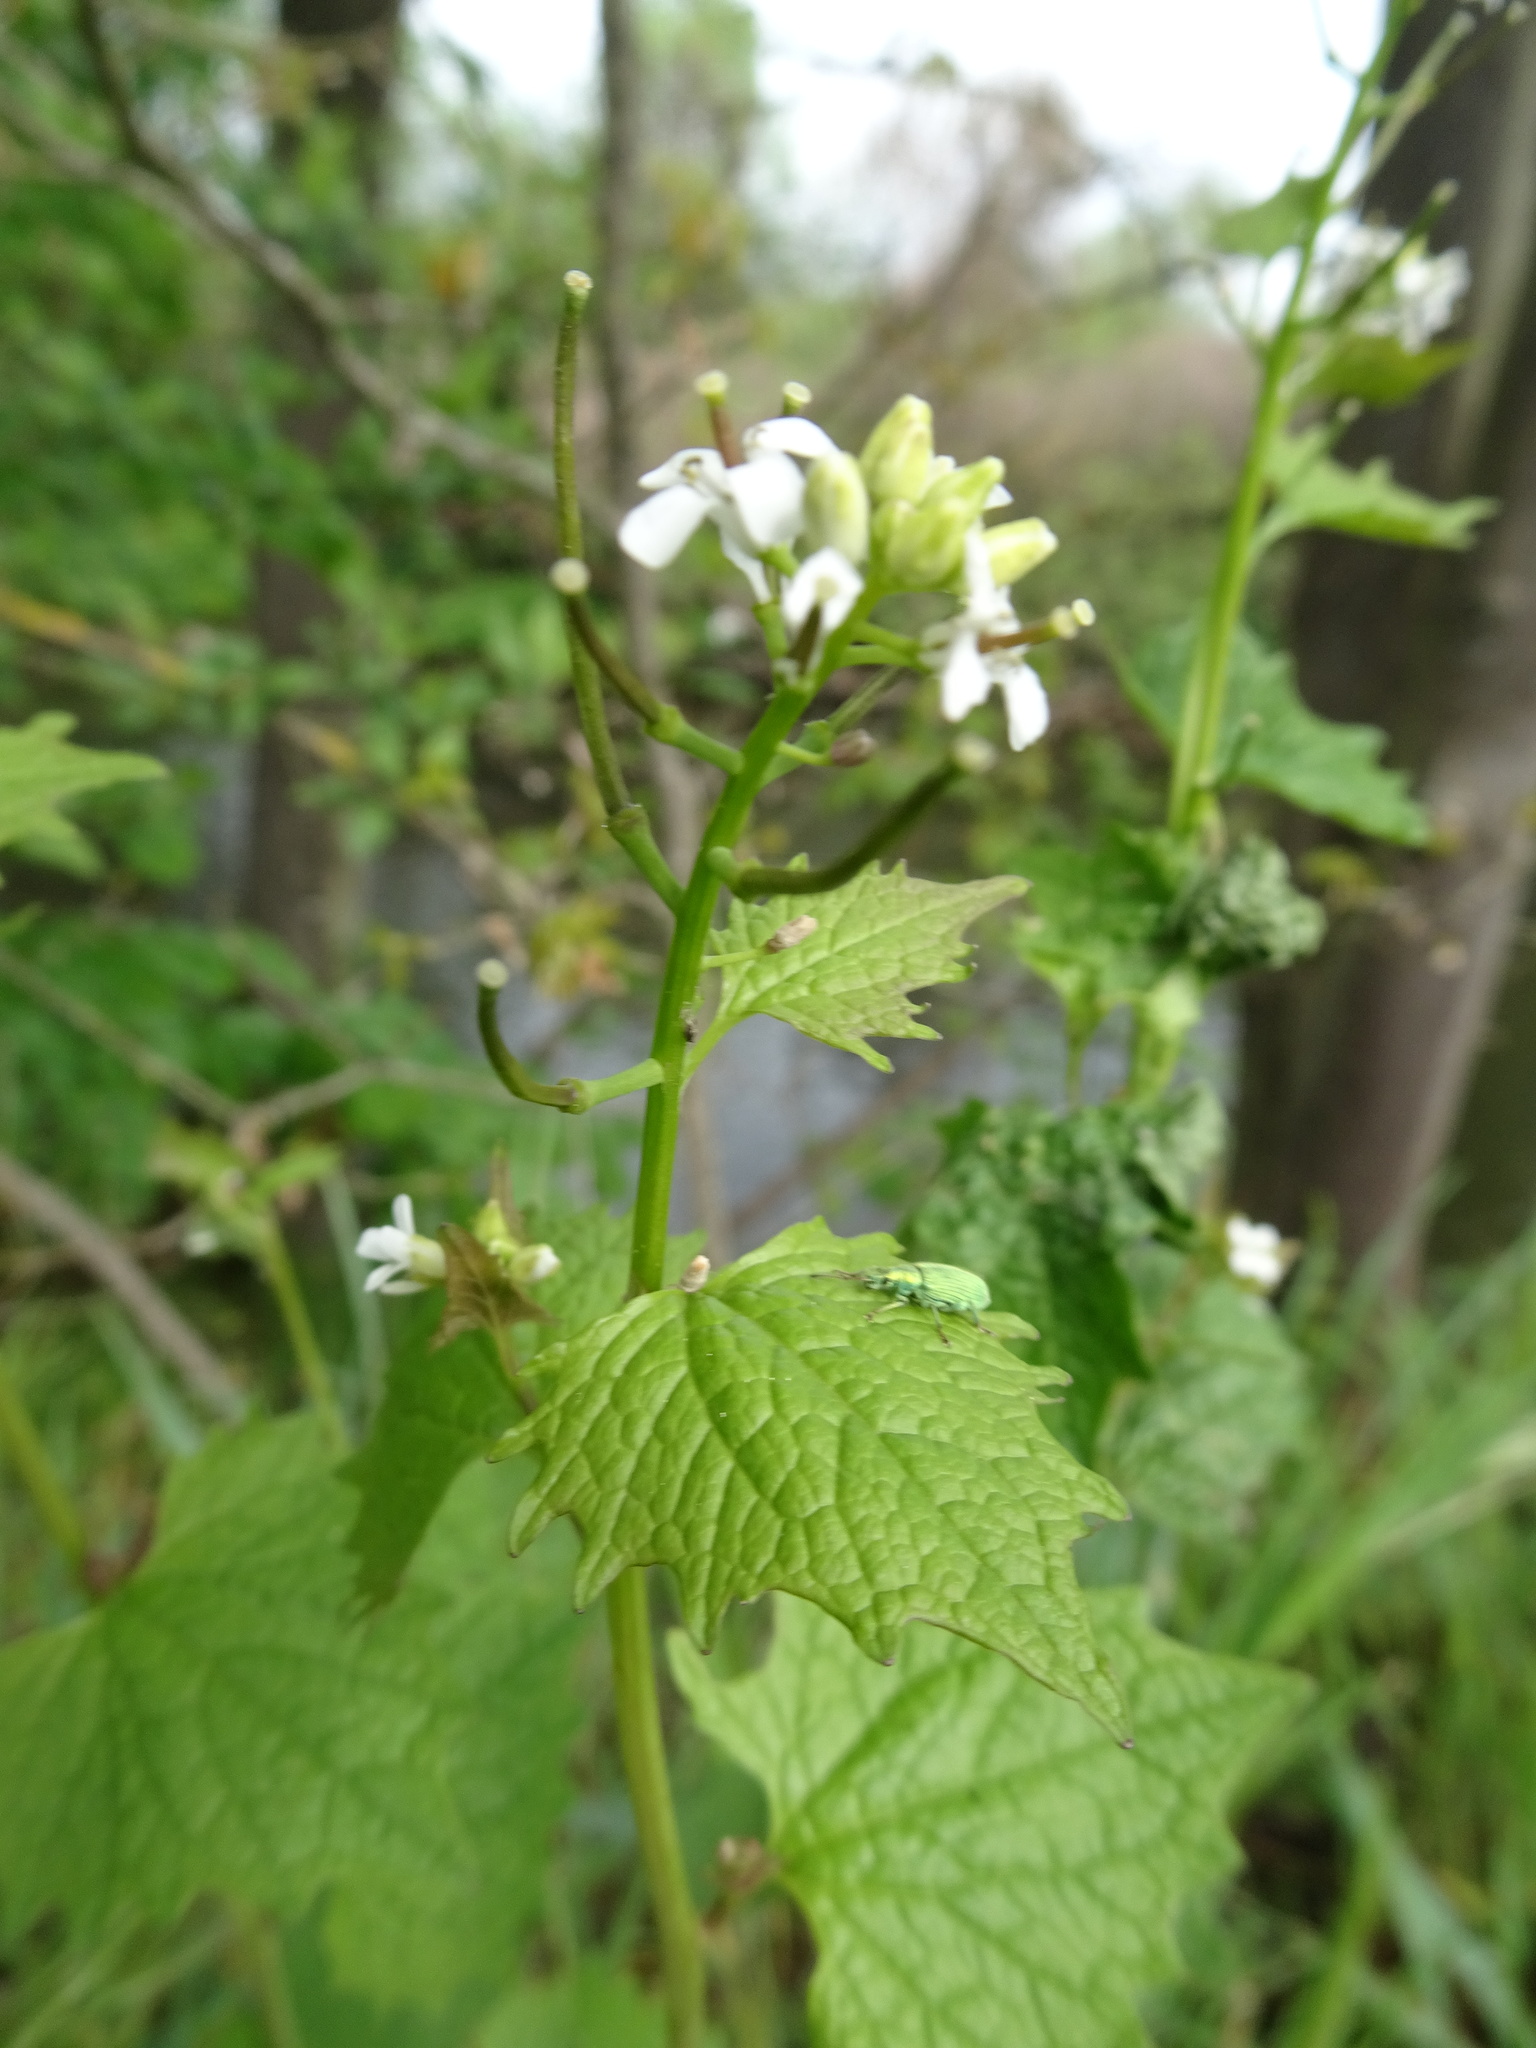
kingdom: Plantae
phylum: Tracheophyta
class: Magnoliopsida
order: Brassicales
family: Brassicaceae
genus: Alliaria
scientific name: Alliaria petiolata
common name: Garlic mustard
